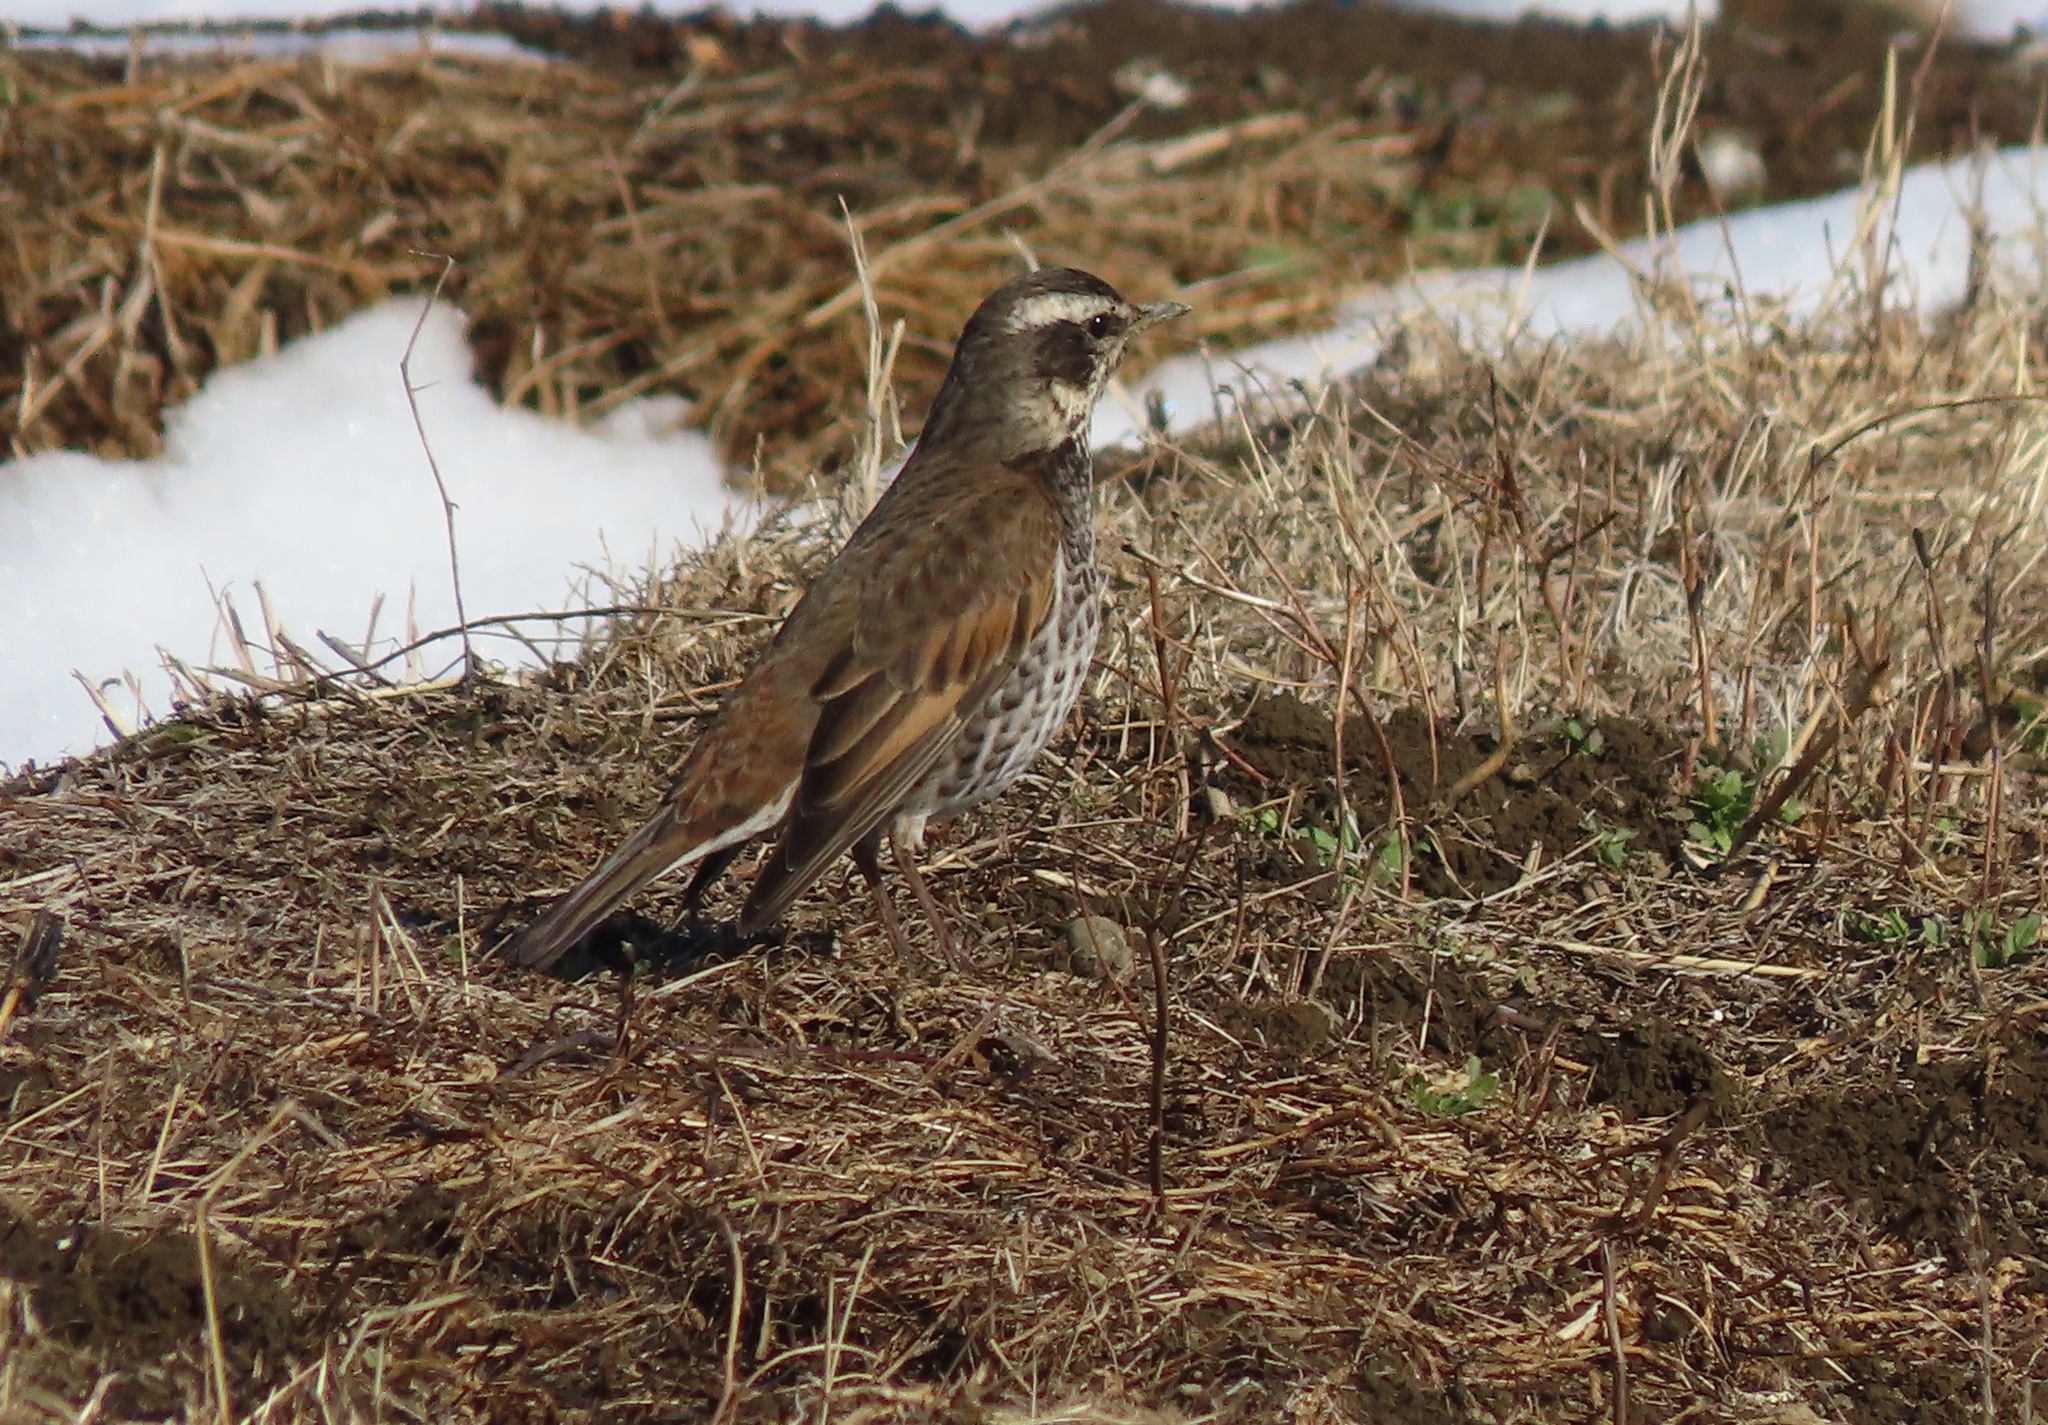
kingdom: Animalia
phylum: Chordata
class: Aves
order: Passeriformes
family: Turdidae
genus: Turdus
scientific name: Turdus eunomus
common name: Dusky thrush
